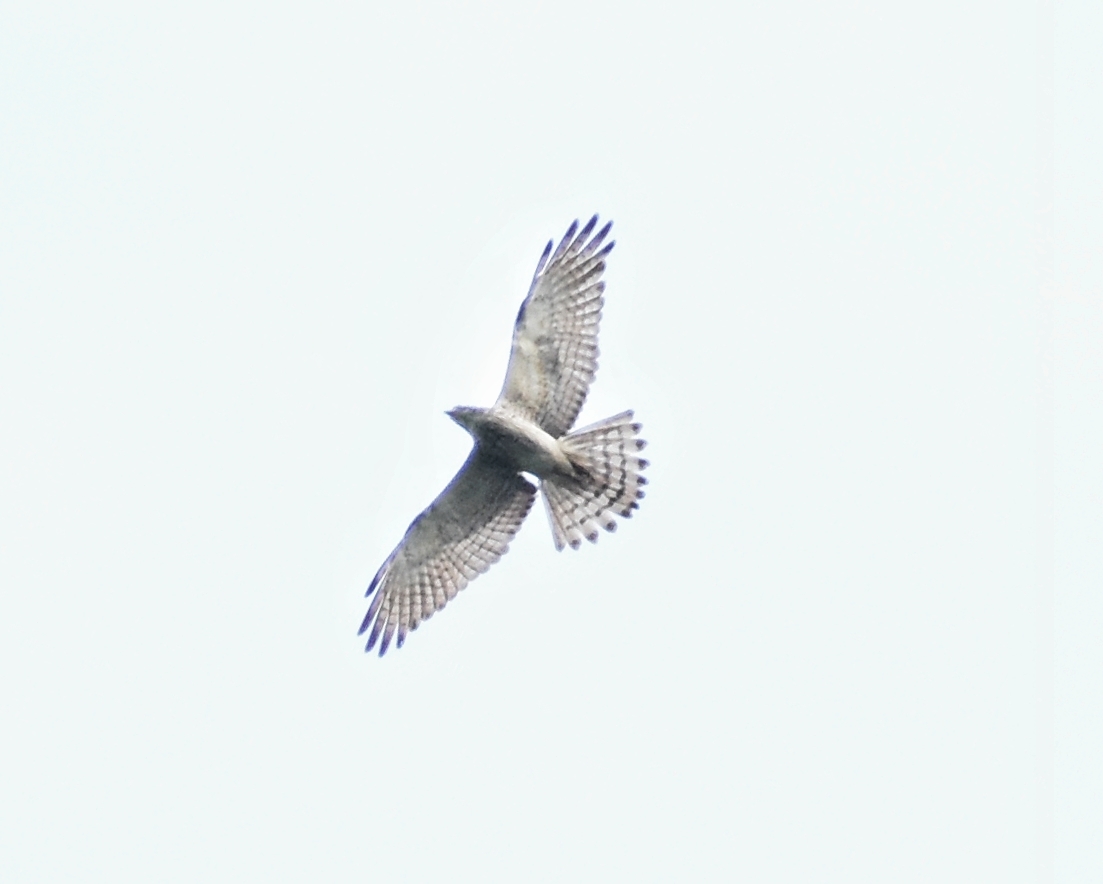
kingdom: Animalia
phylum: Chordata
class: Aves
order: Accipitriformes
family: Accipitridae
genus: Butastur
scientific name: Butastur indicus
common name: Grey-faced buzzard
